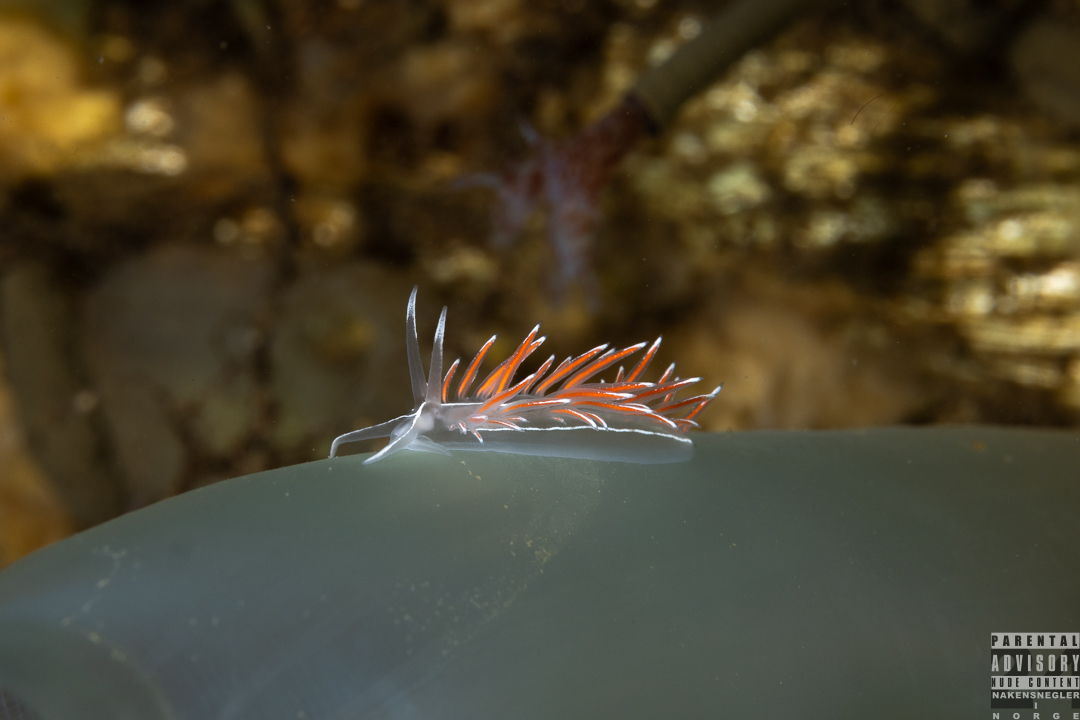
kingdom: Animalia
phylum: Mollusca
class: Gastropoda
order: Nudibranchia
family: Coryphellidae
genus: Coryphella
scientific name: Coryphella lineata
